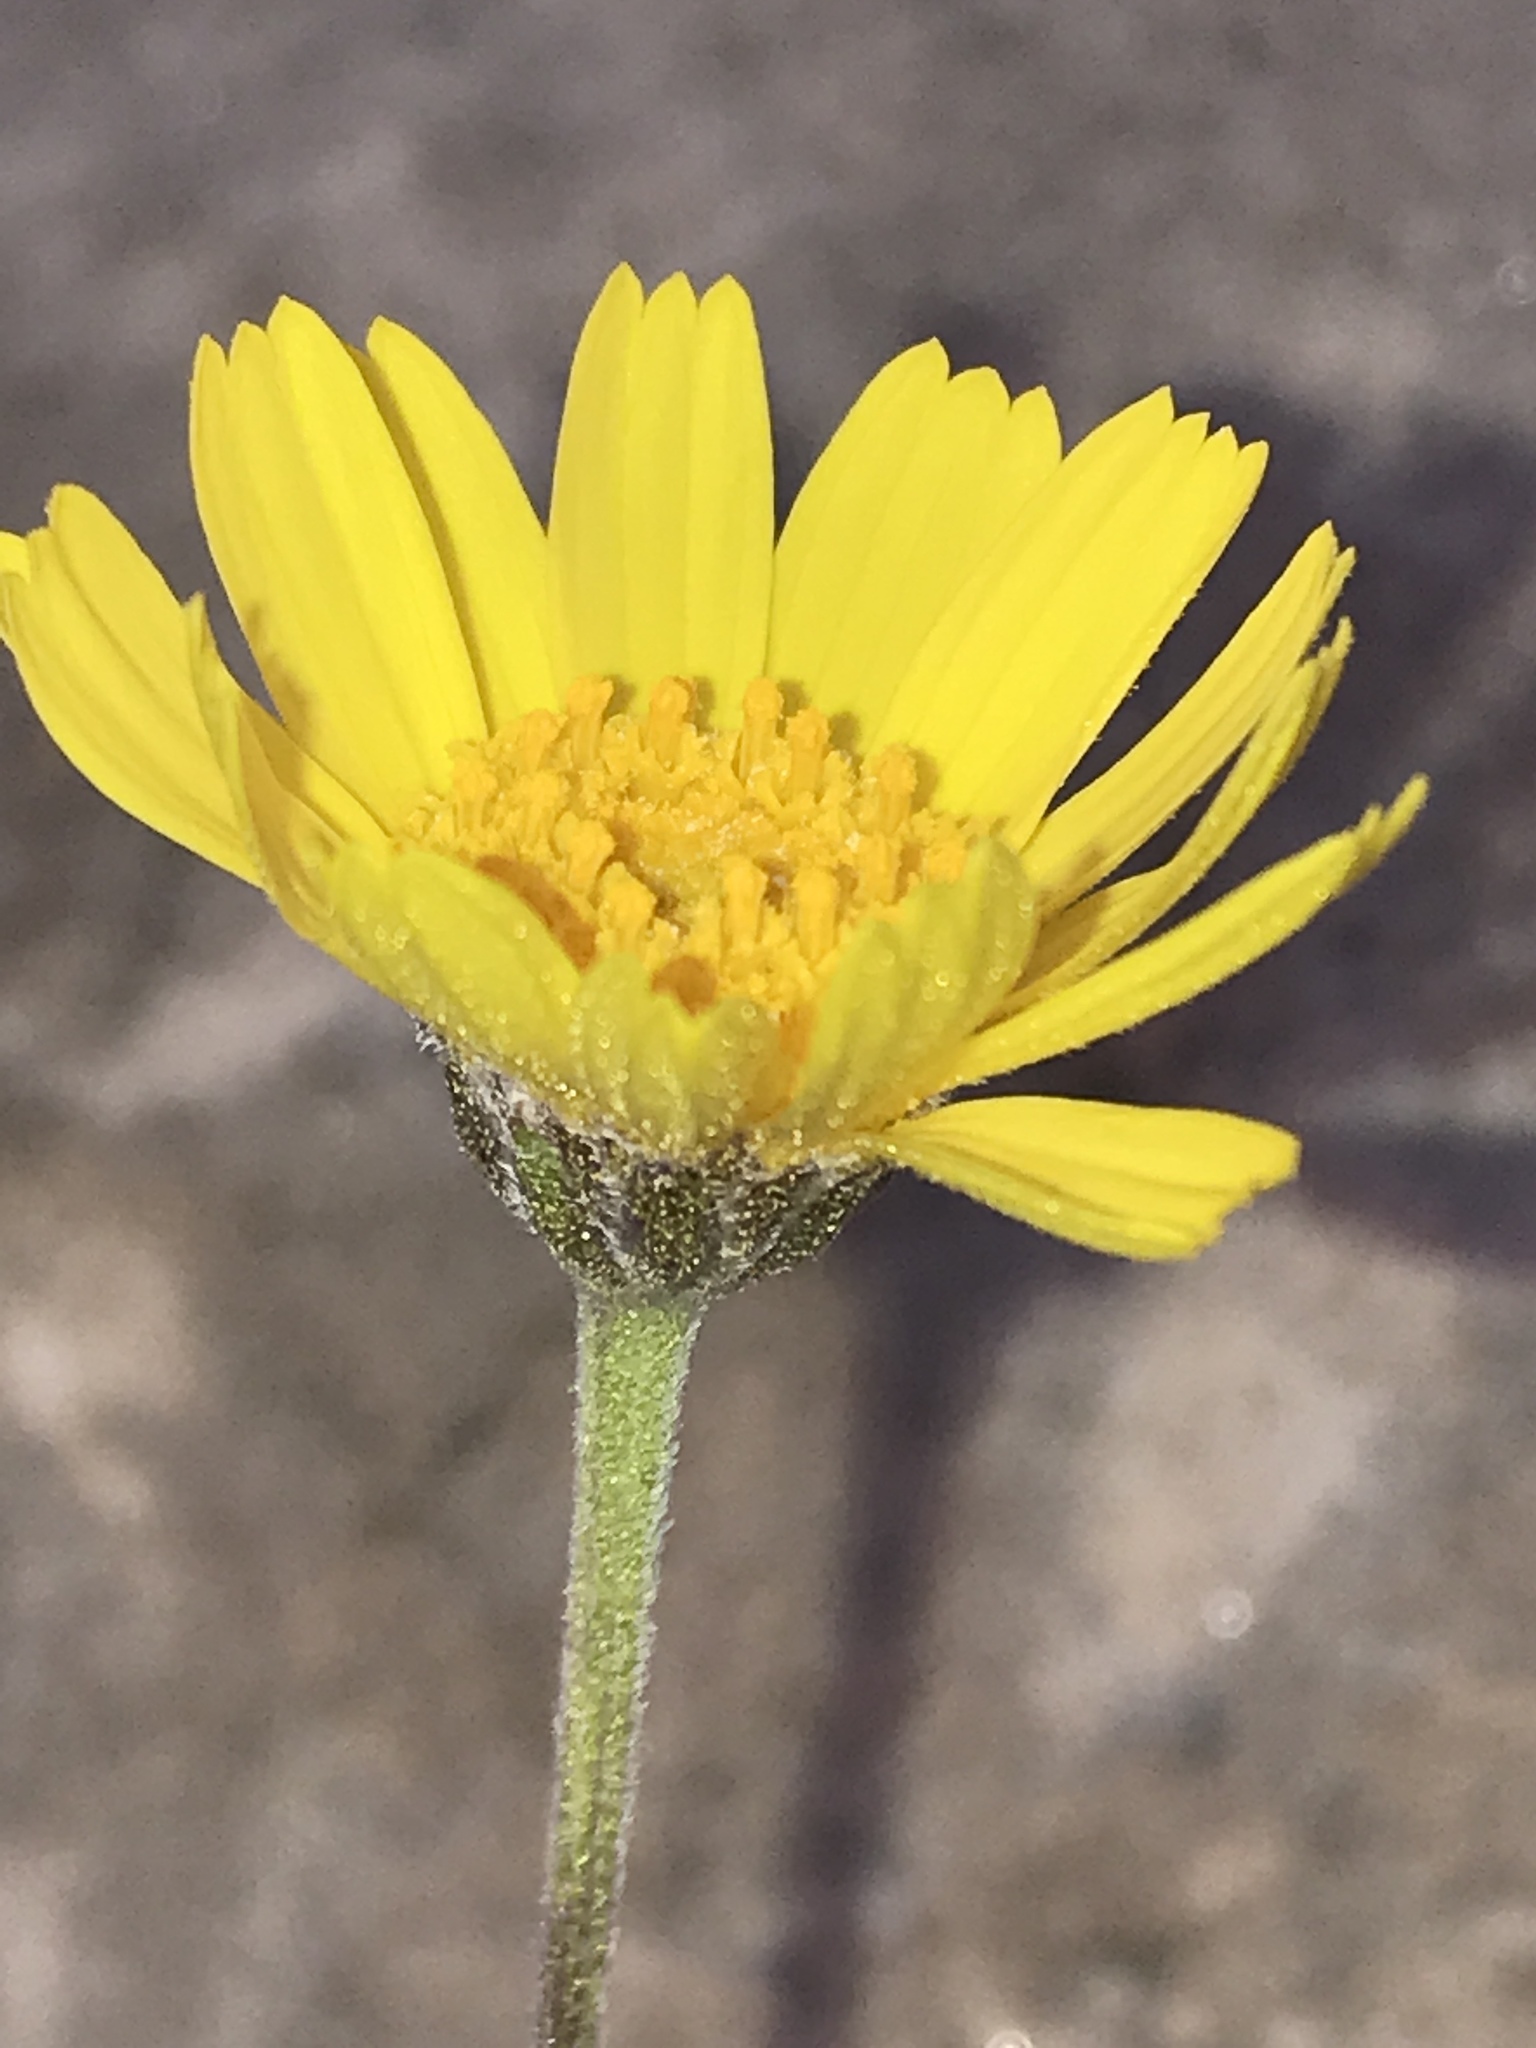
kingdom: Plantae
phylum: Tracheophyta
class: Magnoliopsida
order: Asterales
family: Asteraceae
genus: Tetraneuris
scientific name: Tetraneuris ivesiana
